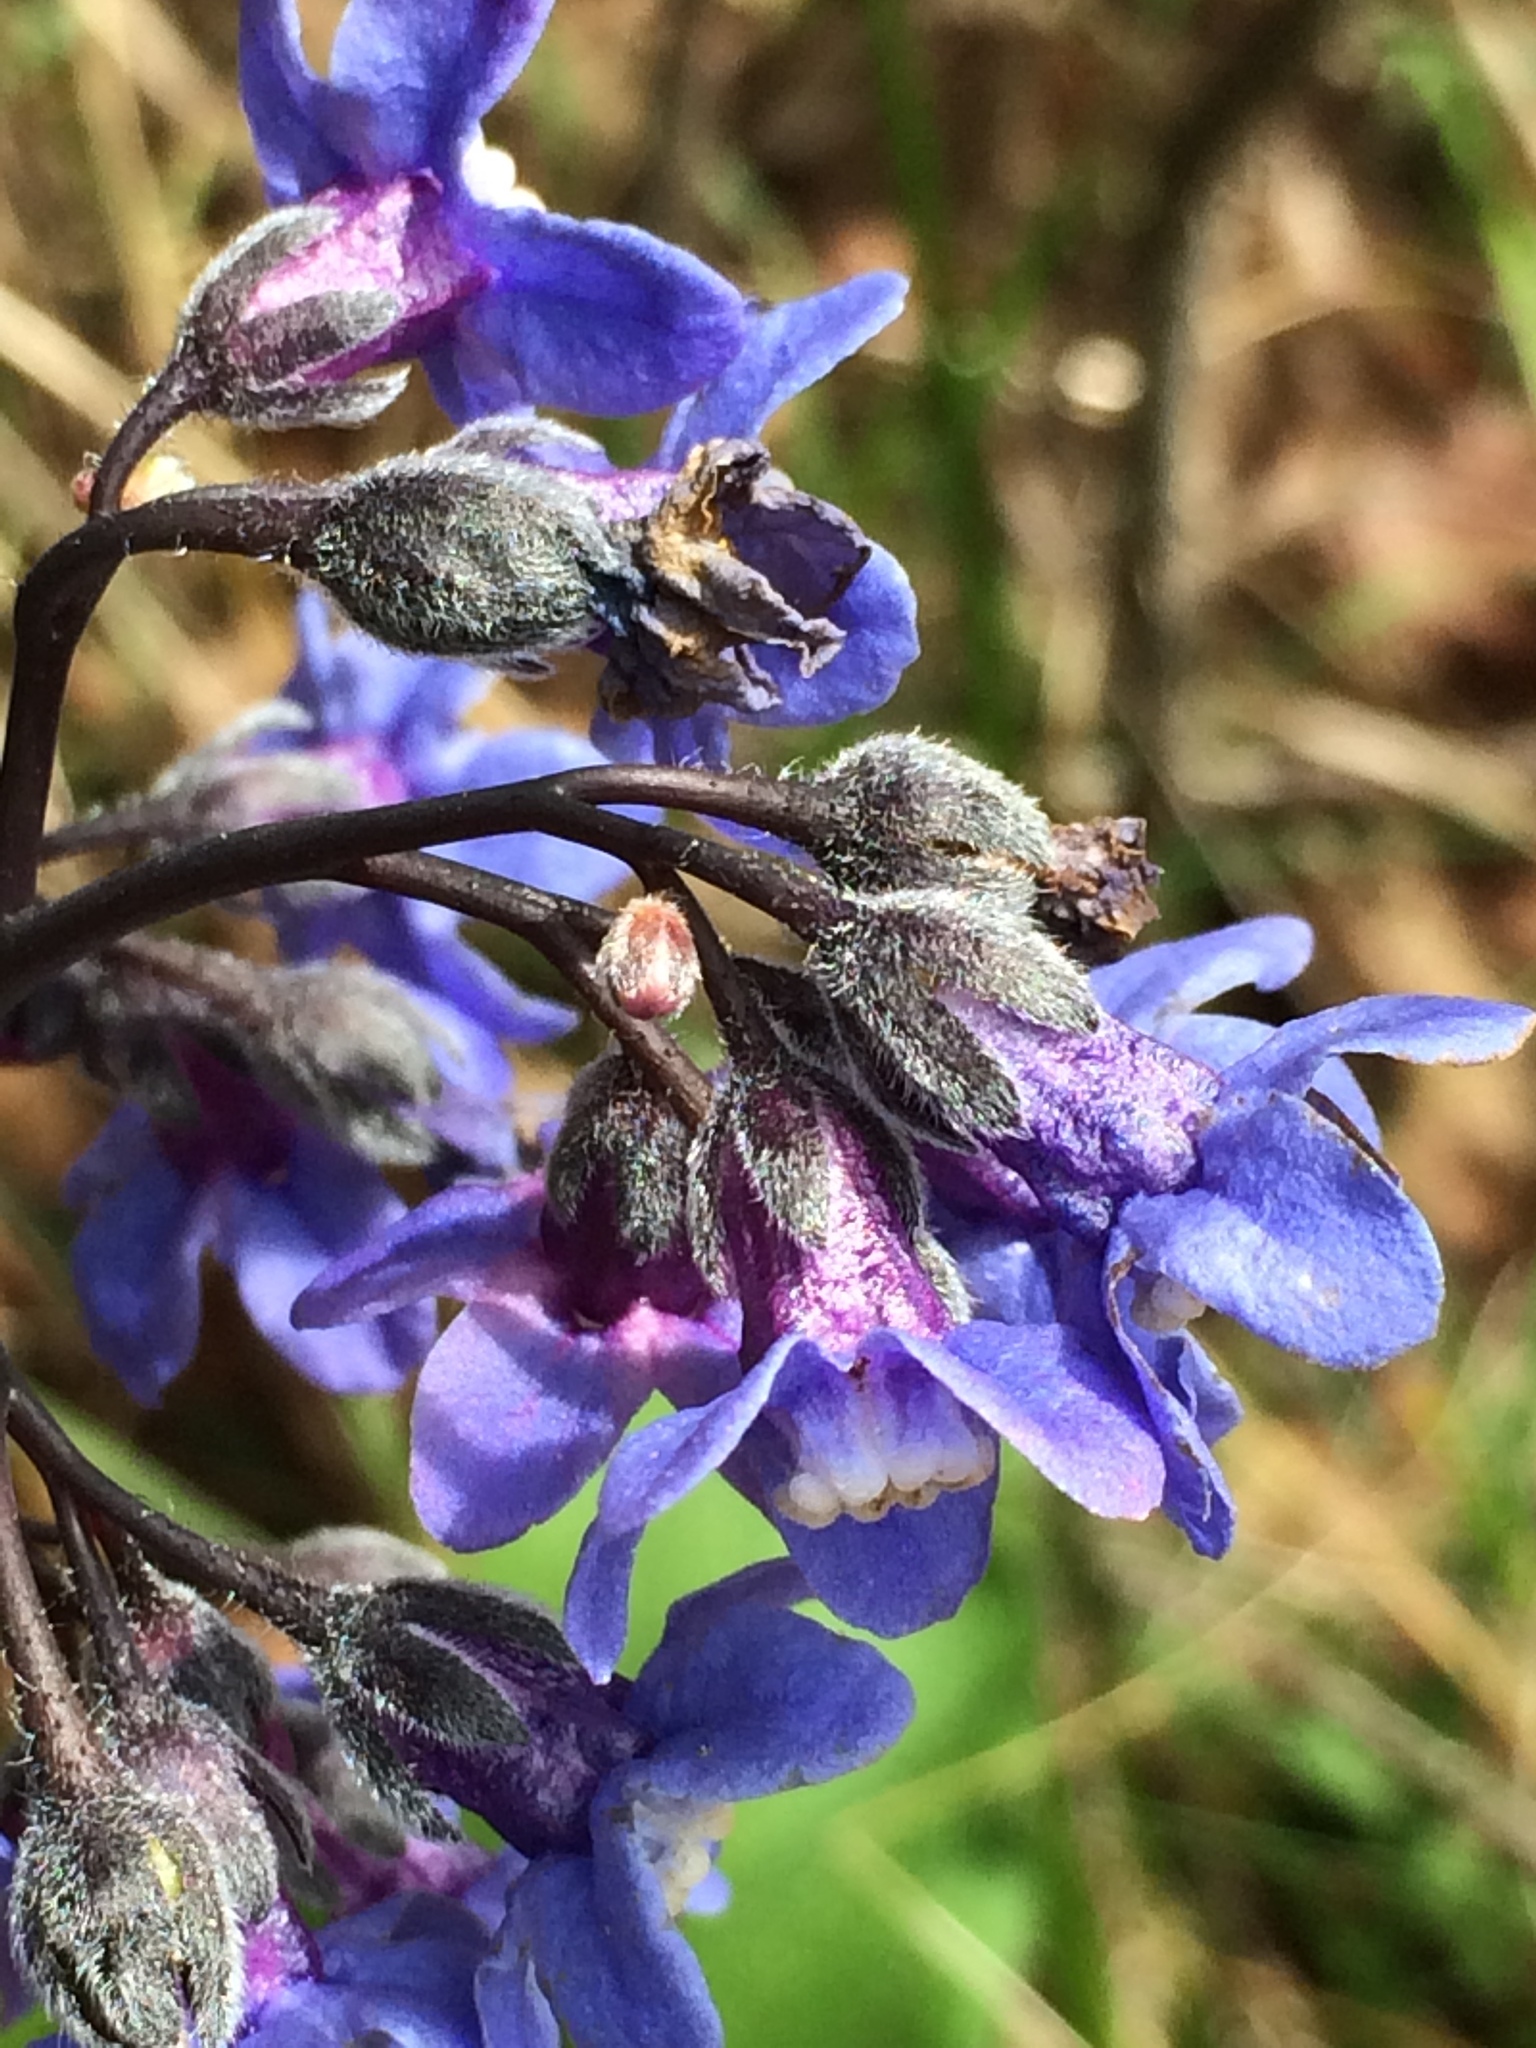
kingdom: Plantae
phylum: Tracheophyta
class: Magnoliopsida
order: Boraginales
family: Boraginaceae
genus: Adelinia
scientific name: Adelinia grande
